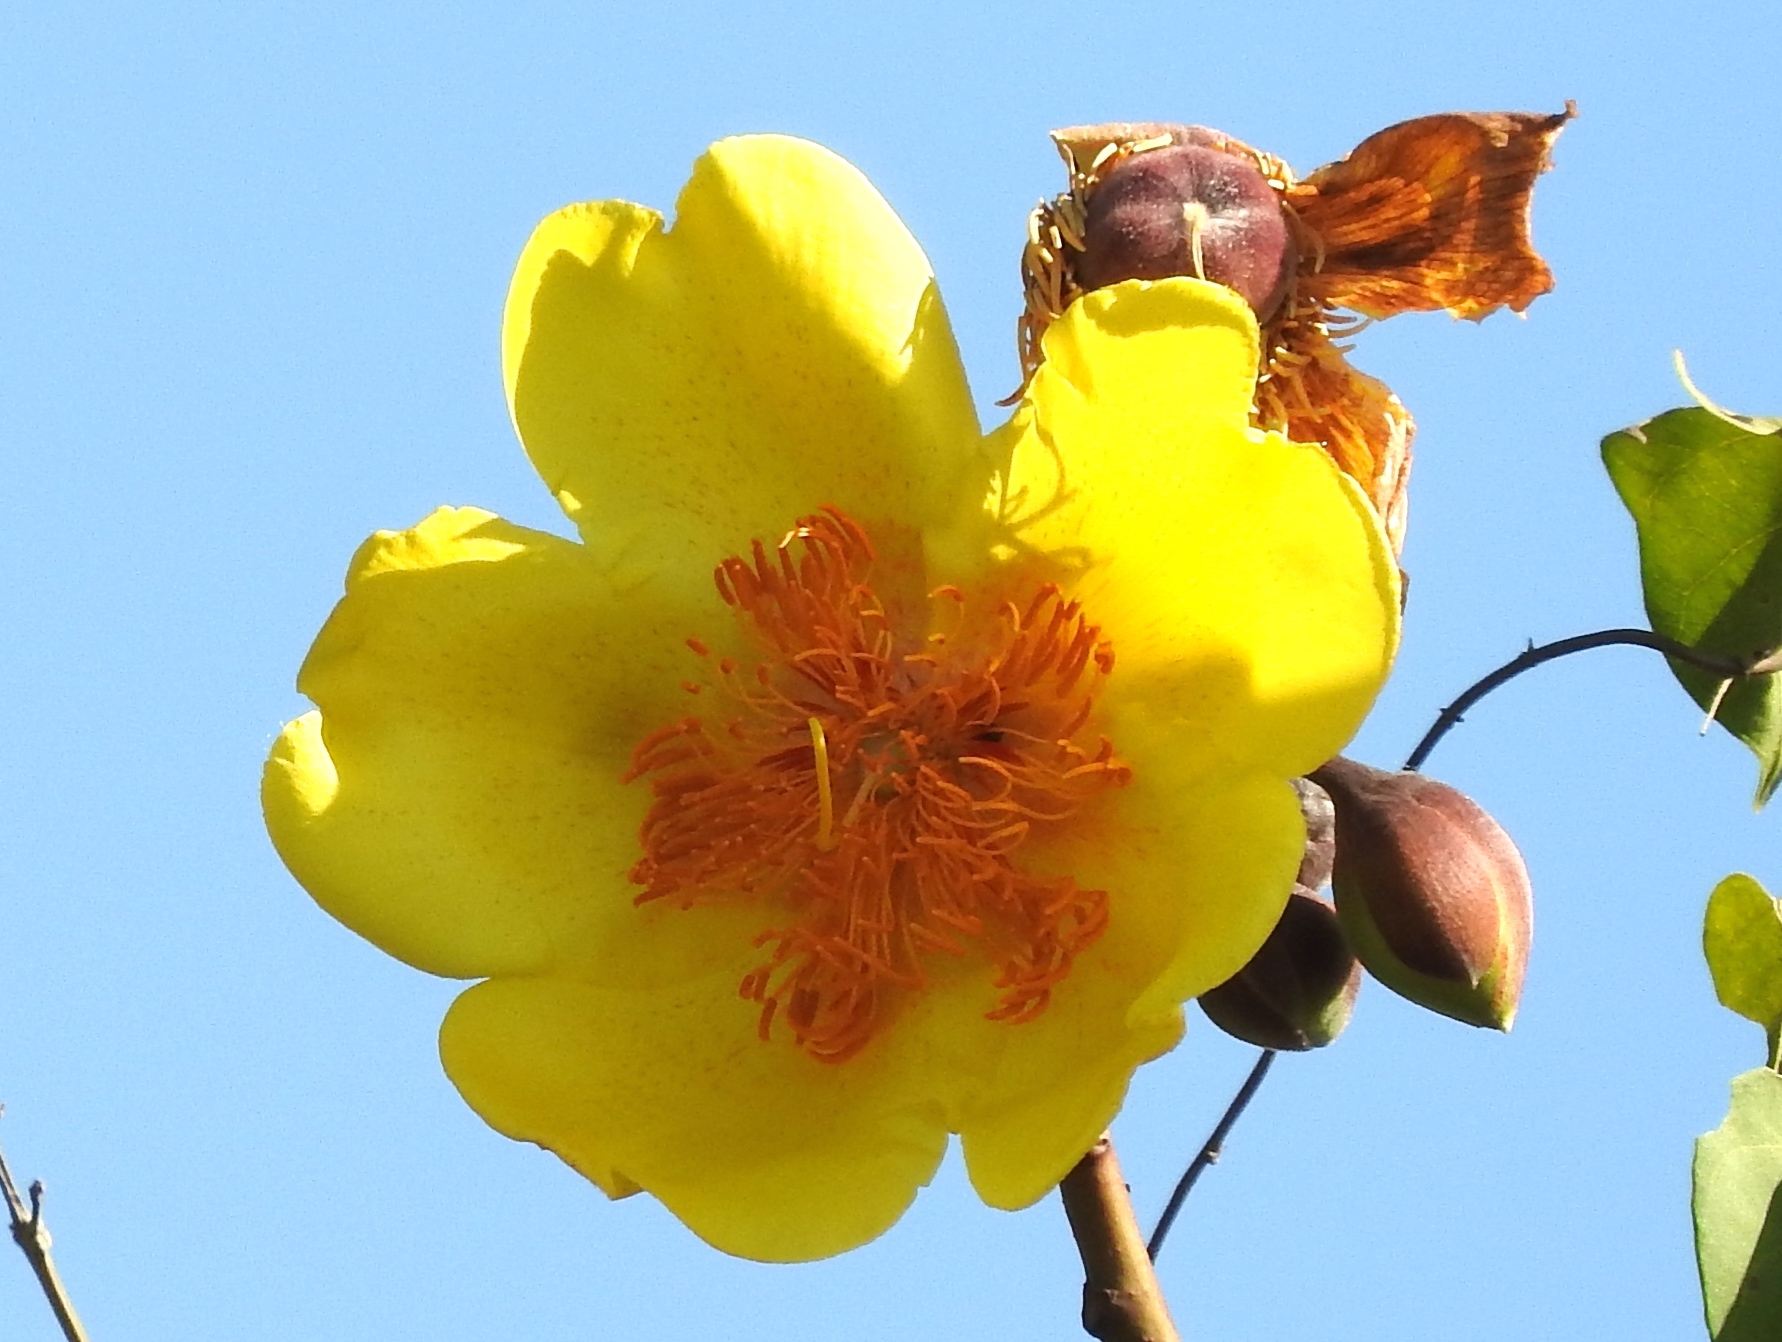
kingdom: Plantae
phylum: Tracheophyta
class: Magnoliopsida
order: Malvales
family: Cochlospermaceae
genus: Cochlospermum
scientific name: Cochlospermum vitifolium
